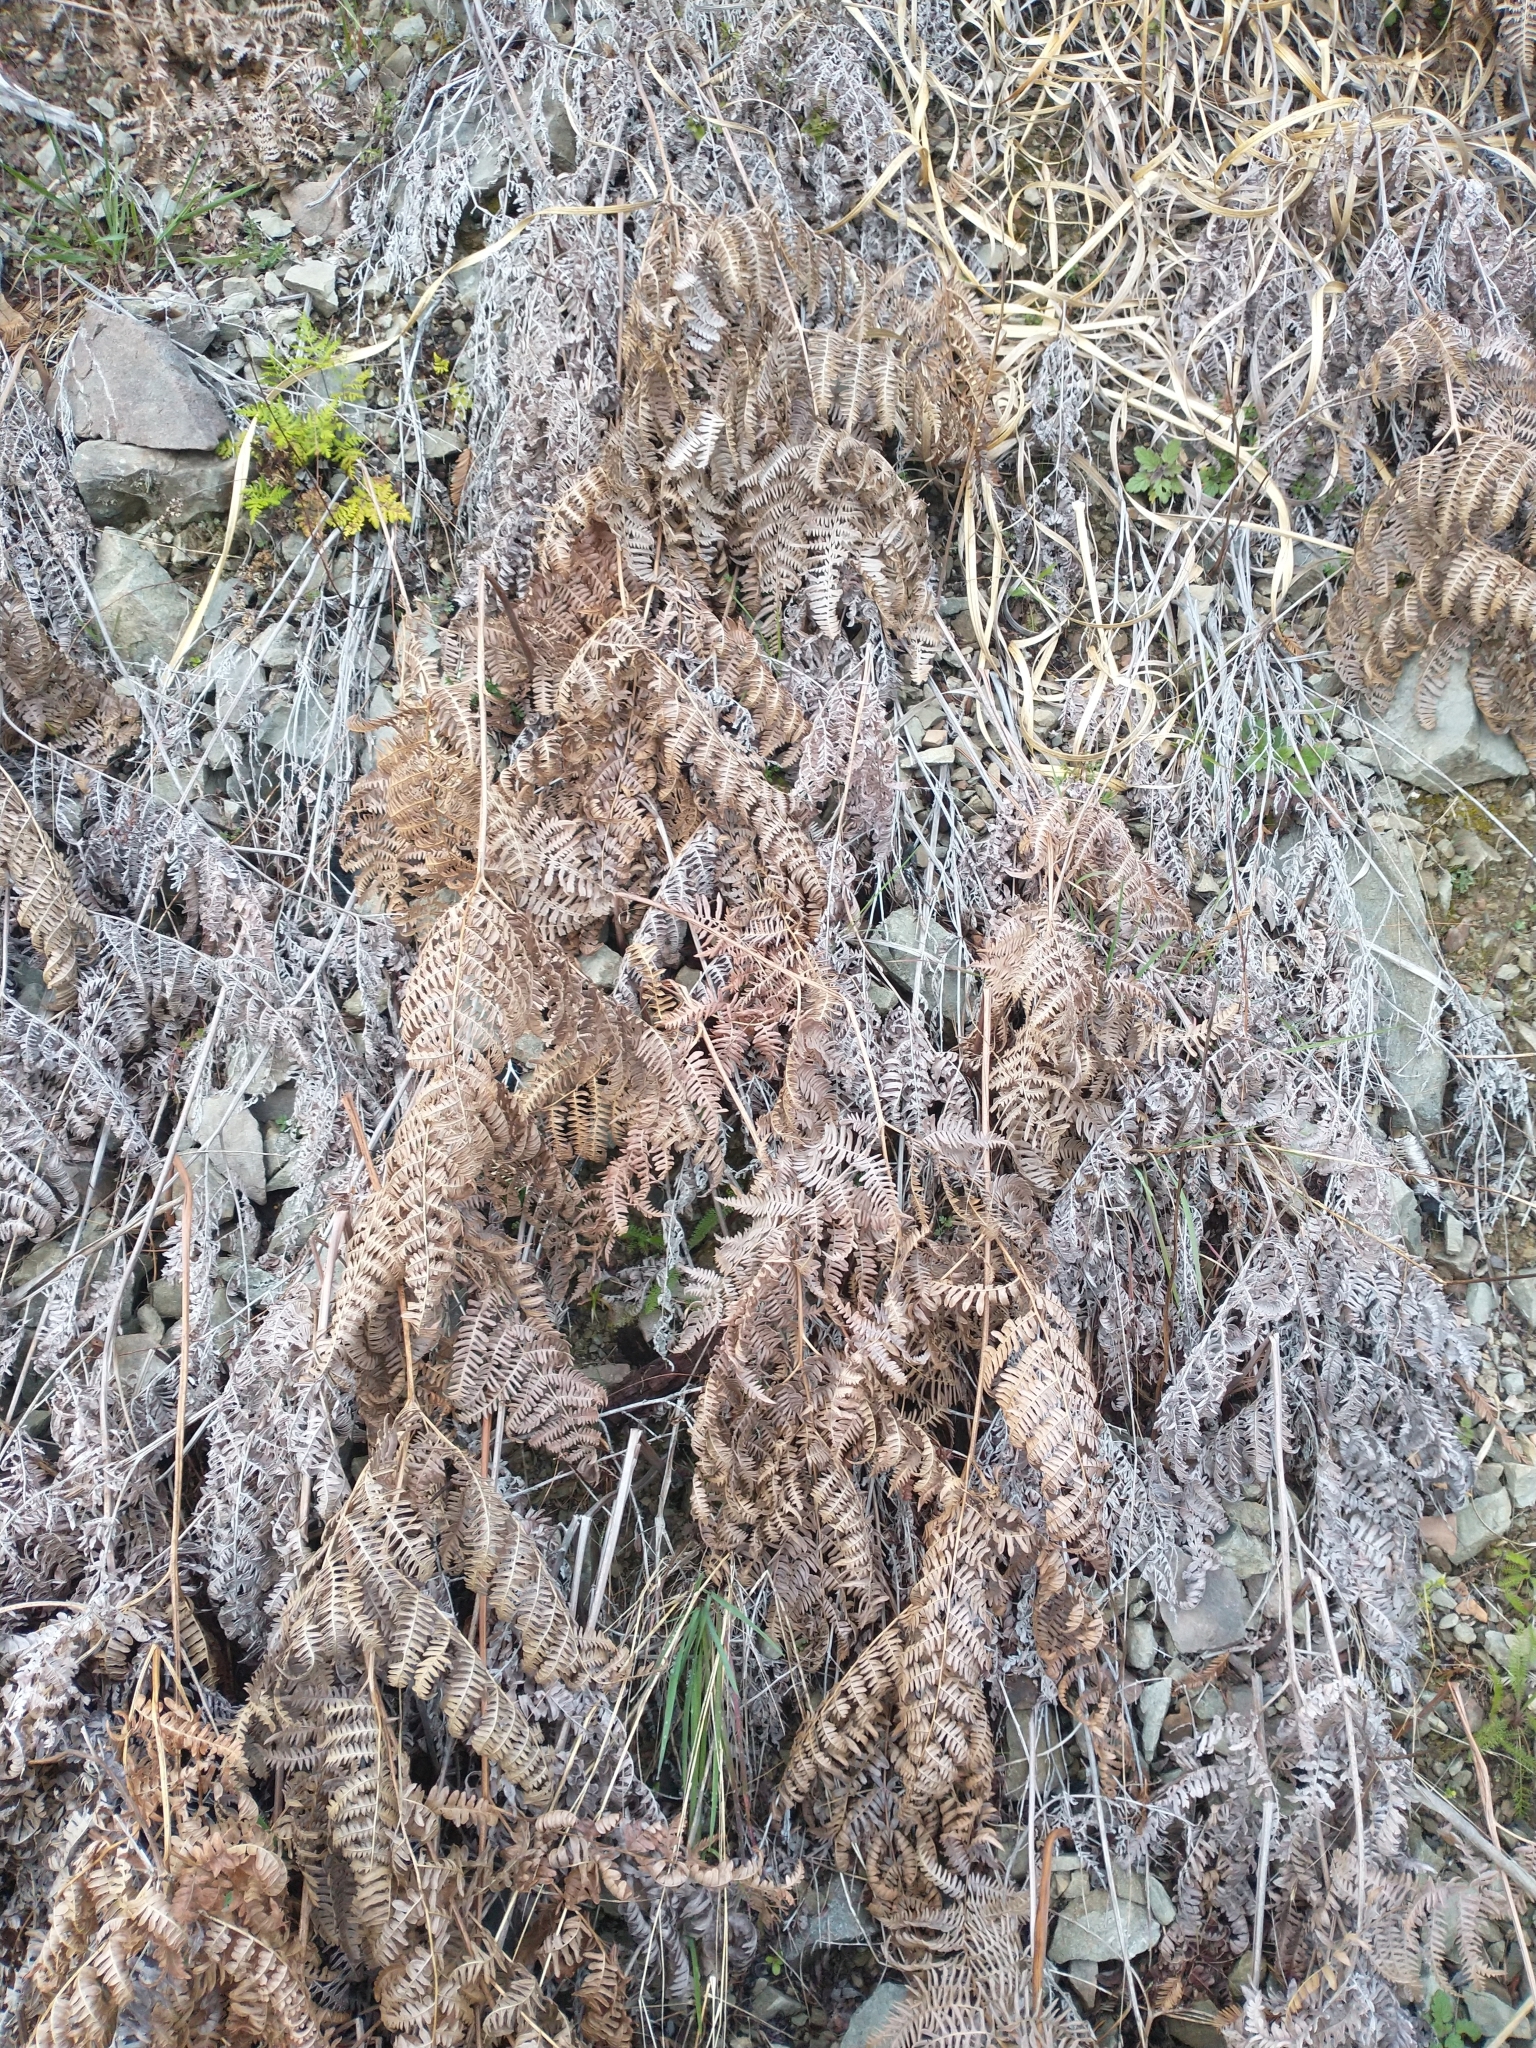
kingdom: Plantae
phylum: Tracheophyta
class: Polypodiopsida
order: Polypodiales
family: Dennstaedtiaceae
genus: Pteridium
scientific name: Pteridium aquilinum
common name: Bracken
